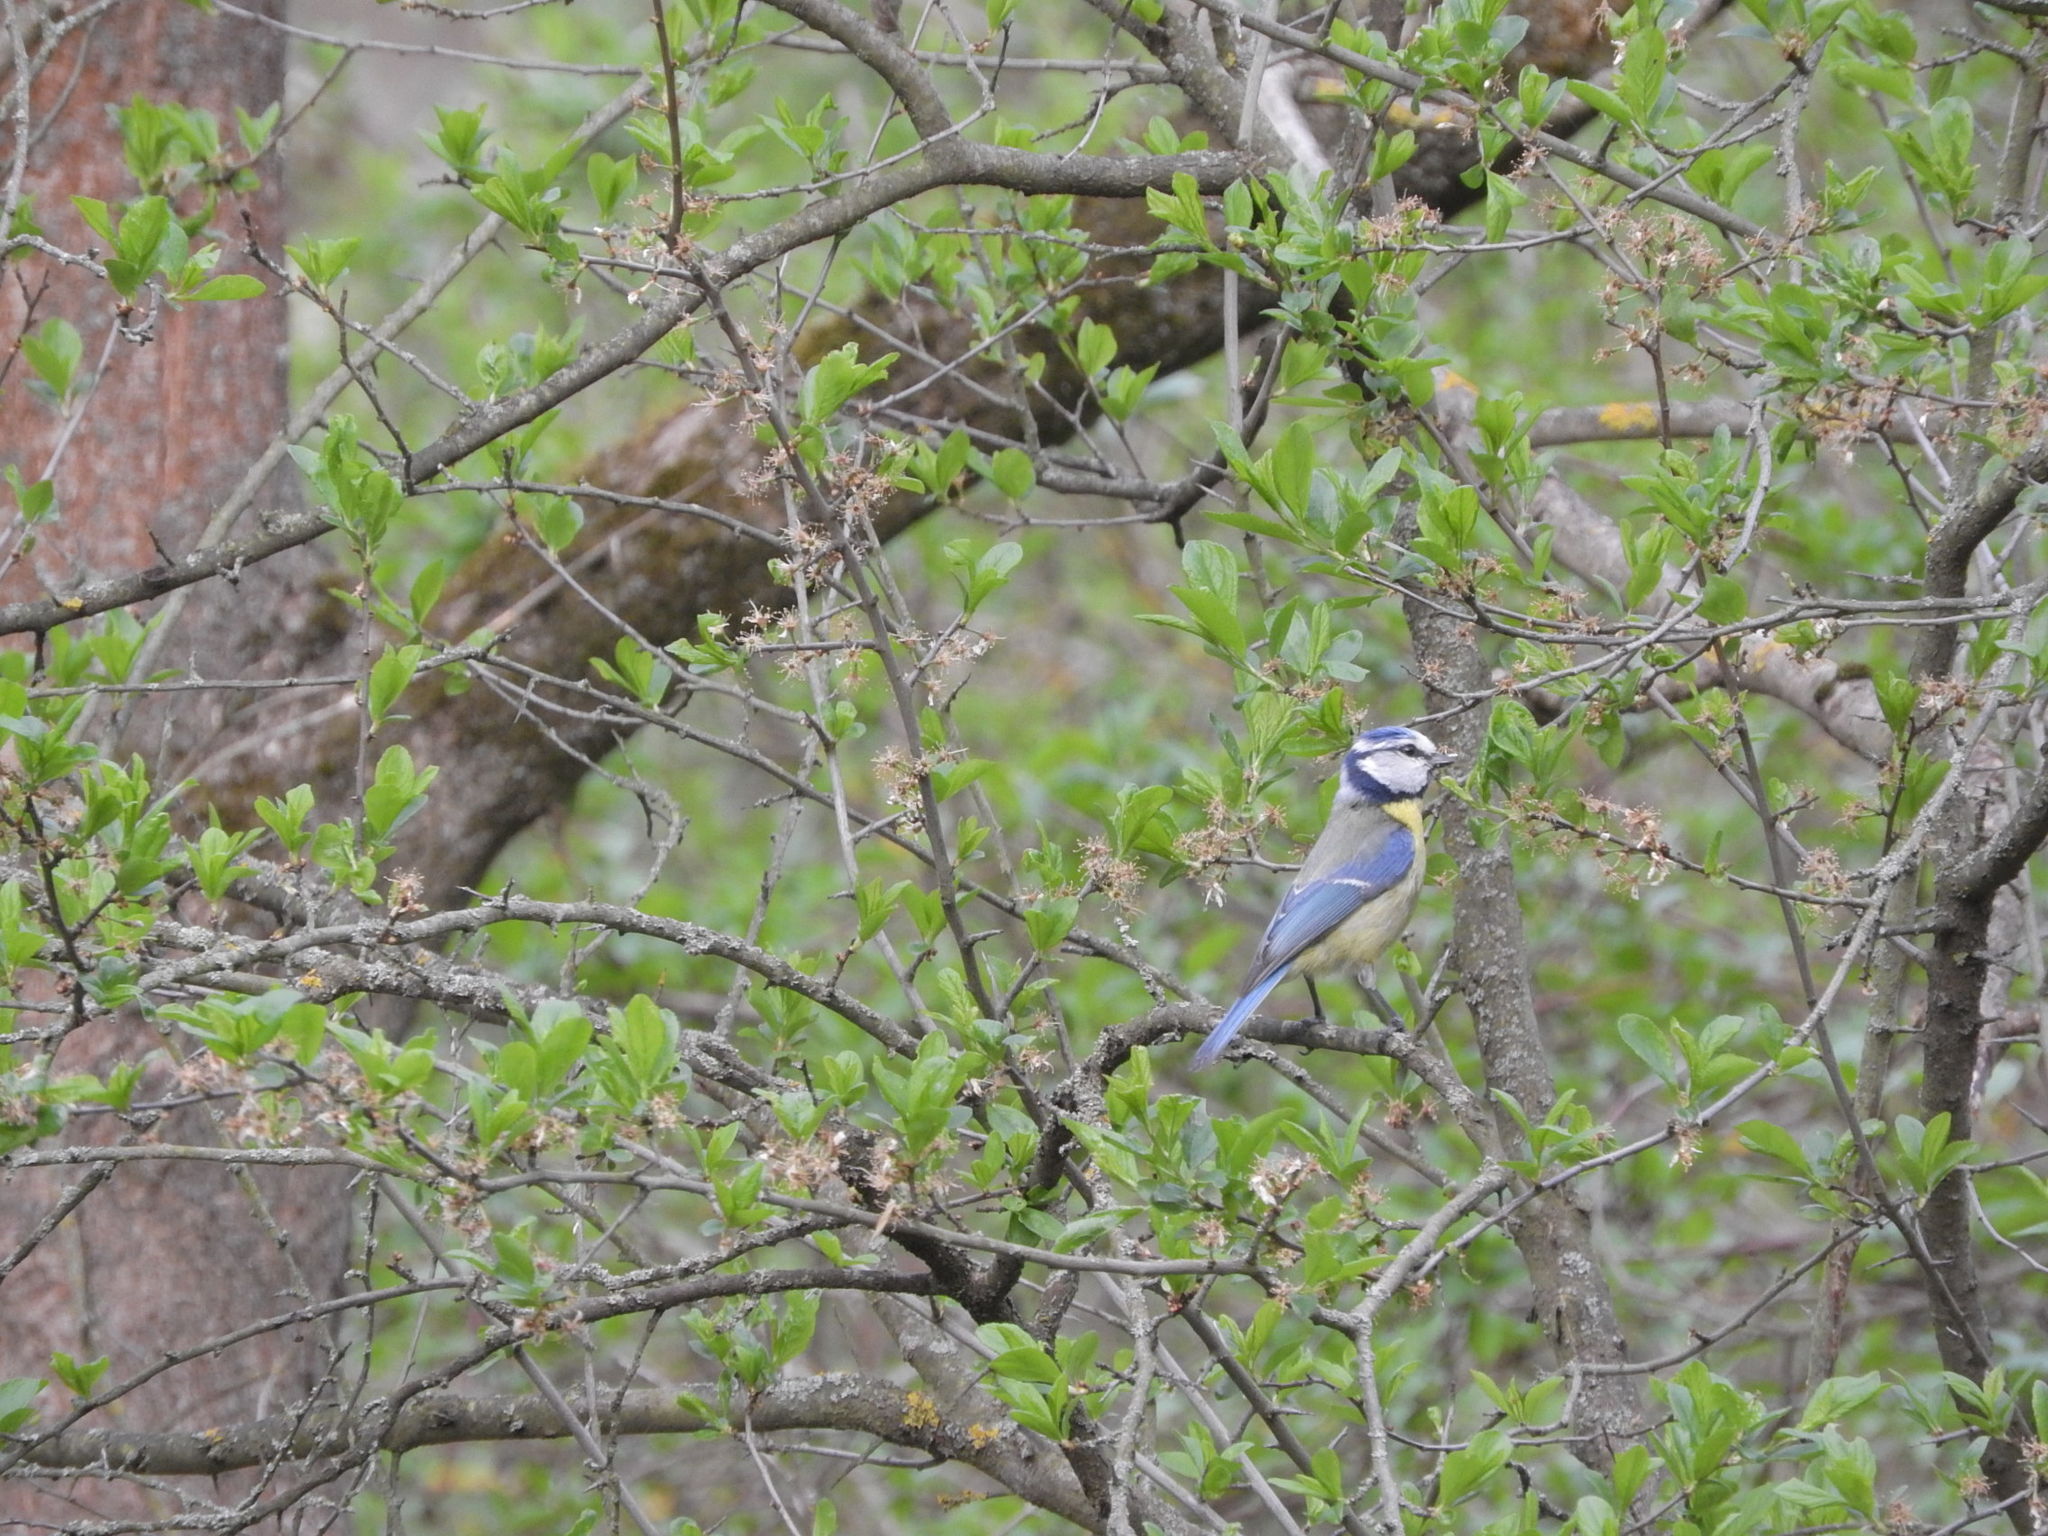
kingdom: Animalia
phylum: Chordata
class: Aves
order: Passeriformes
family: Paridae
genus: Cyanistes
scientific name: Cyanistes caeruleus
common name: Eurasian blue tit
